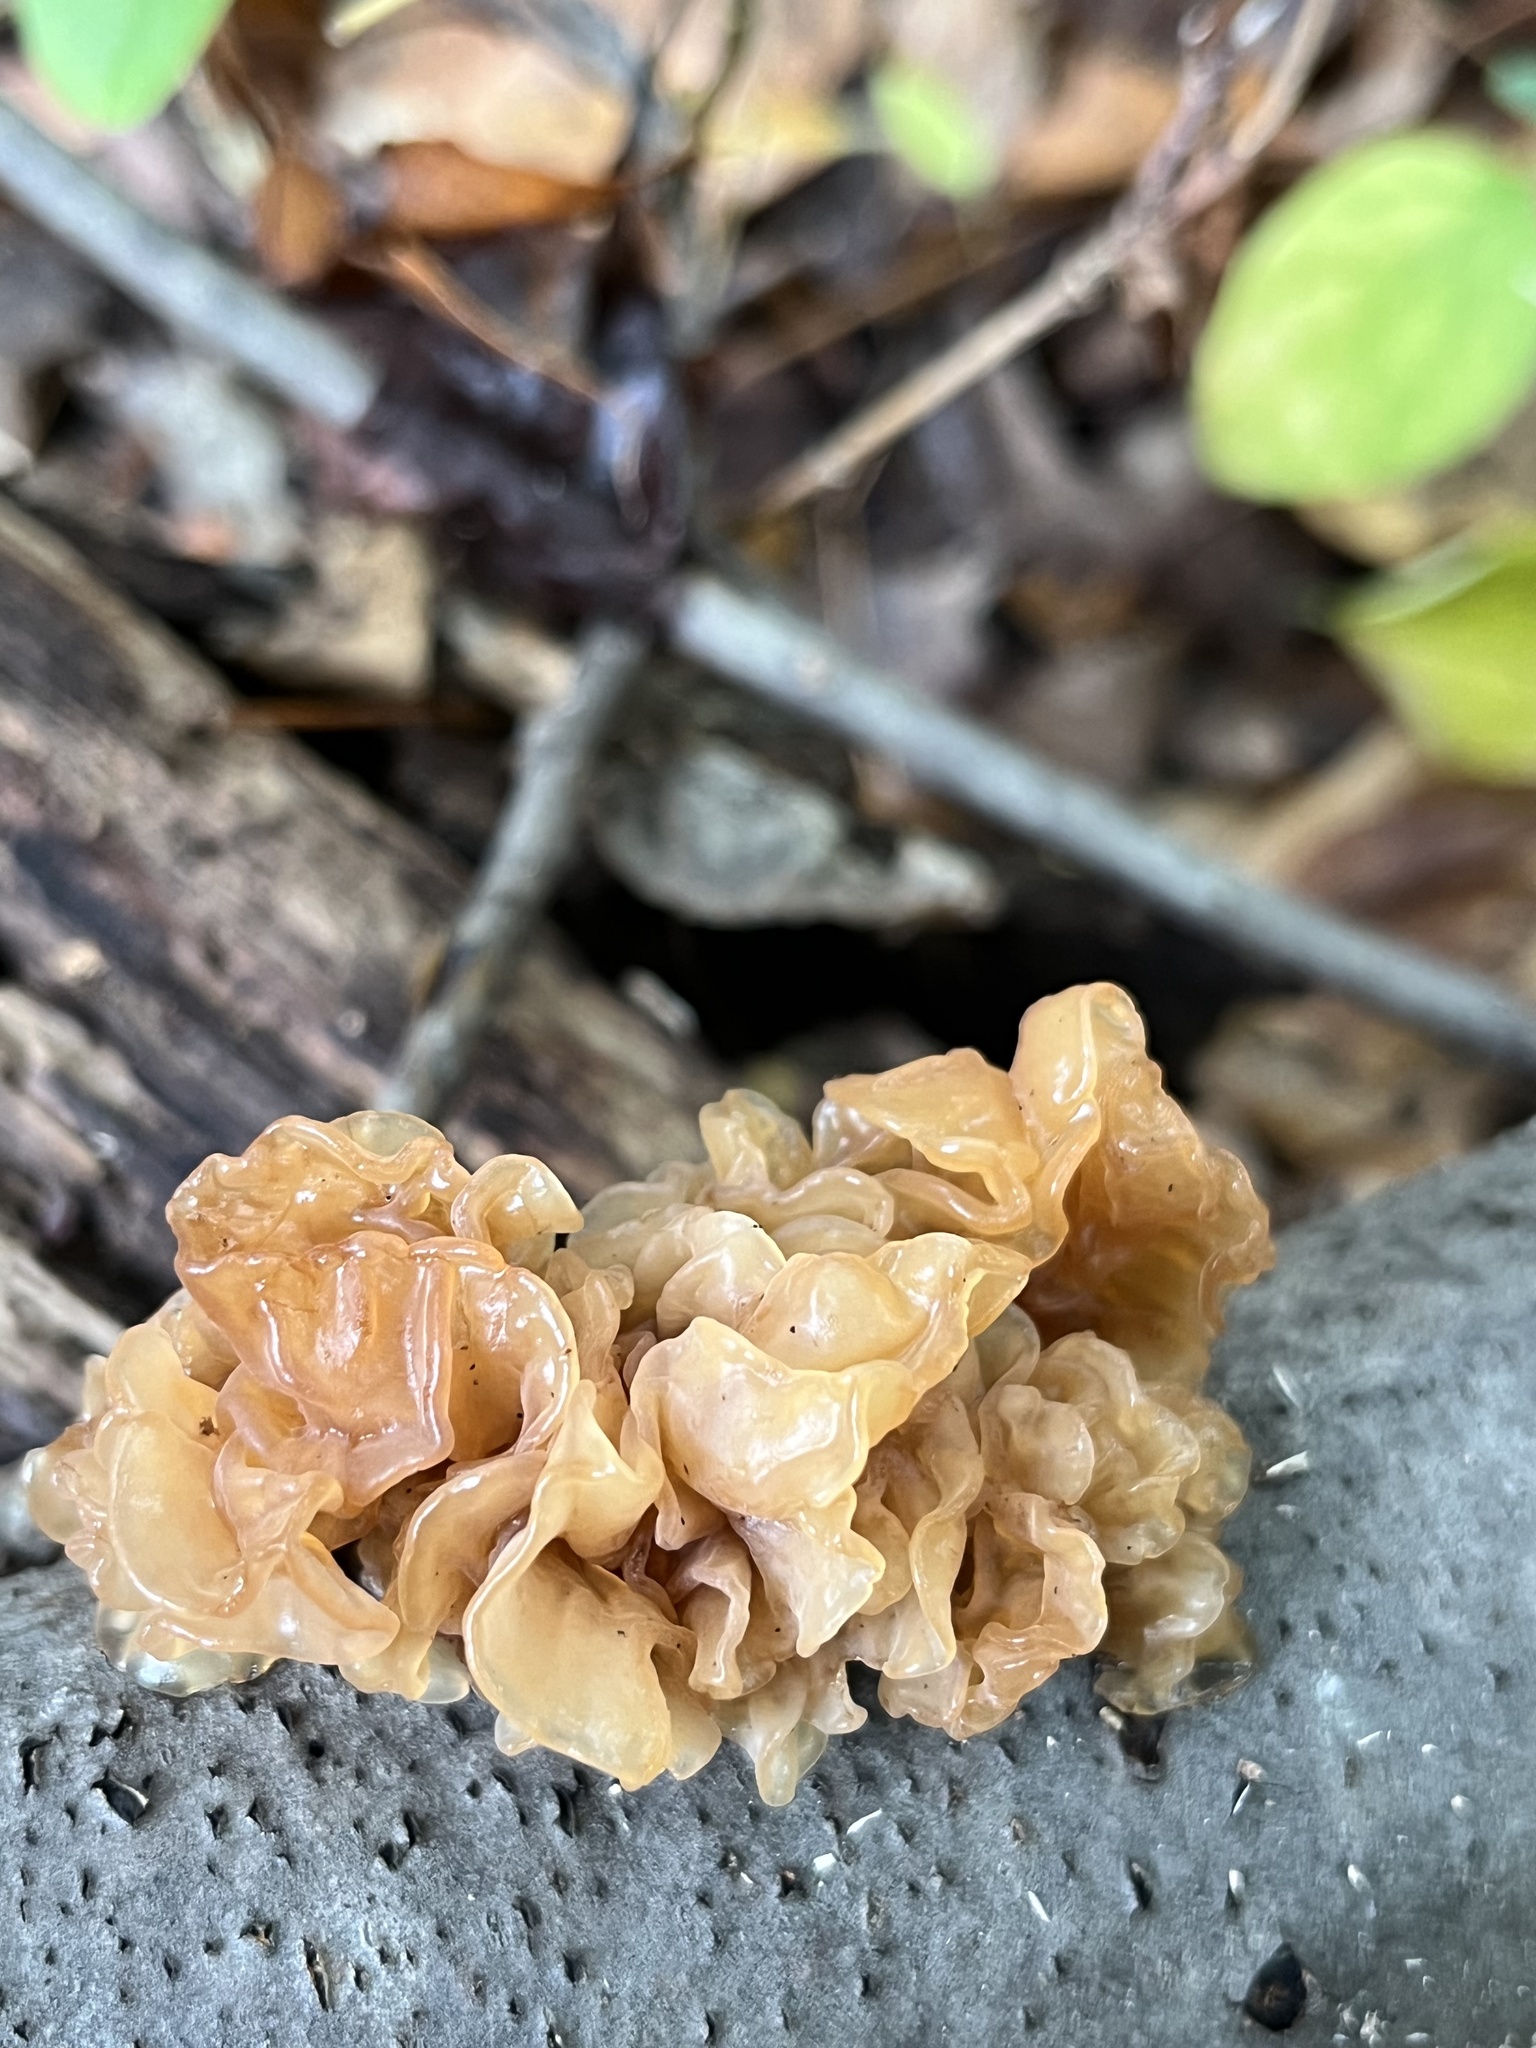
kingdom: Fungi
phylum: Basidiomycota
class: Tremellomycetes
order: Tremellales
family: Tremellaceae
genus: Phaeotremella
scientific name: Phaeotremella frondosa
